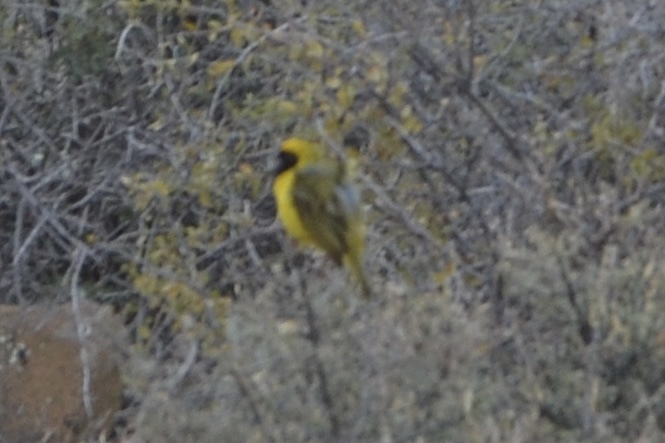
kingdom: Animalia
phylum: Chordata
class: Aves
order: Passeriformes
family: Ploceidae
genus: Ploceus
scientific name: Ploceus velatus
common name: Southern masked weaver
